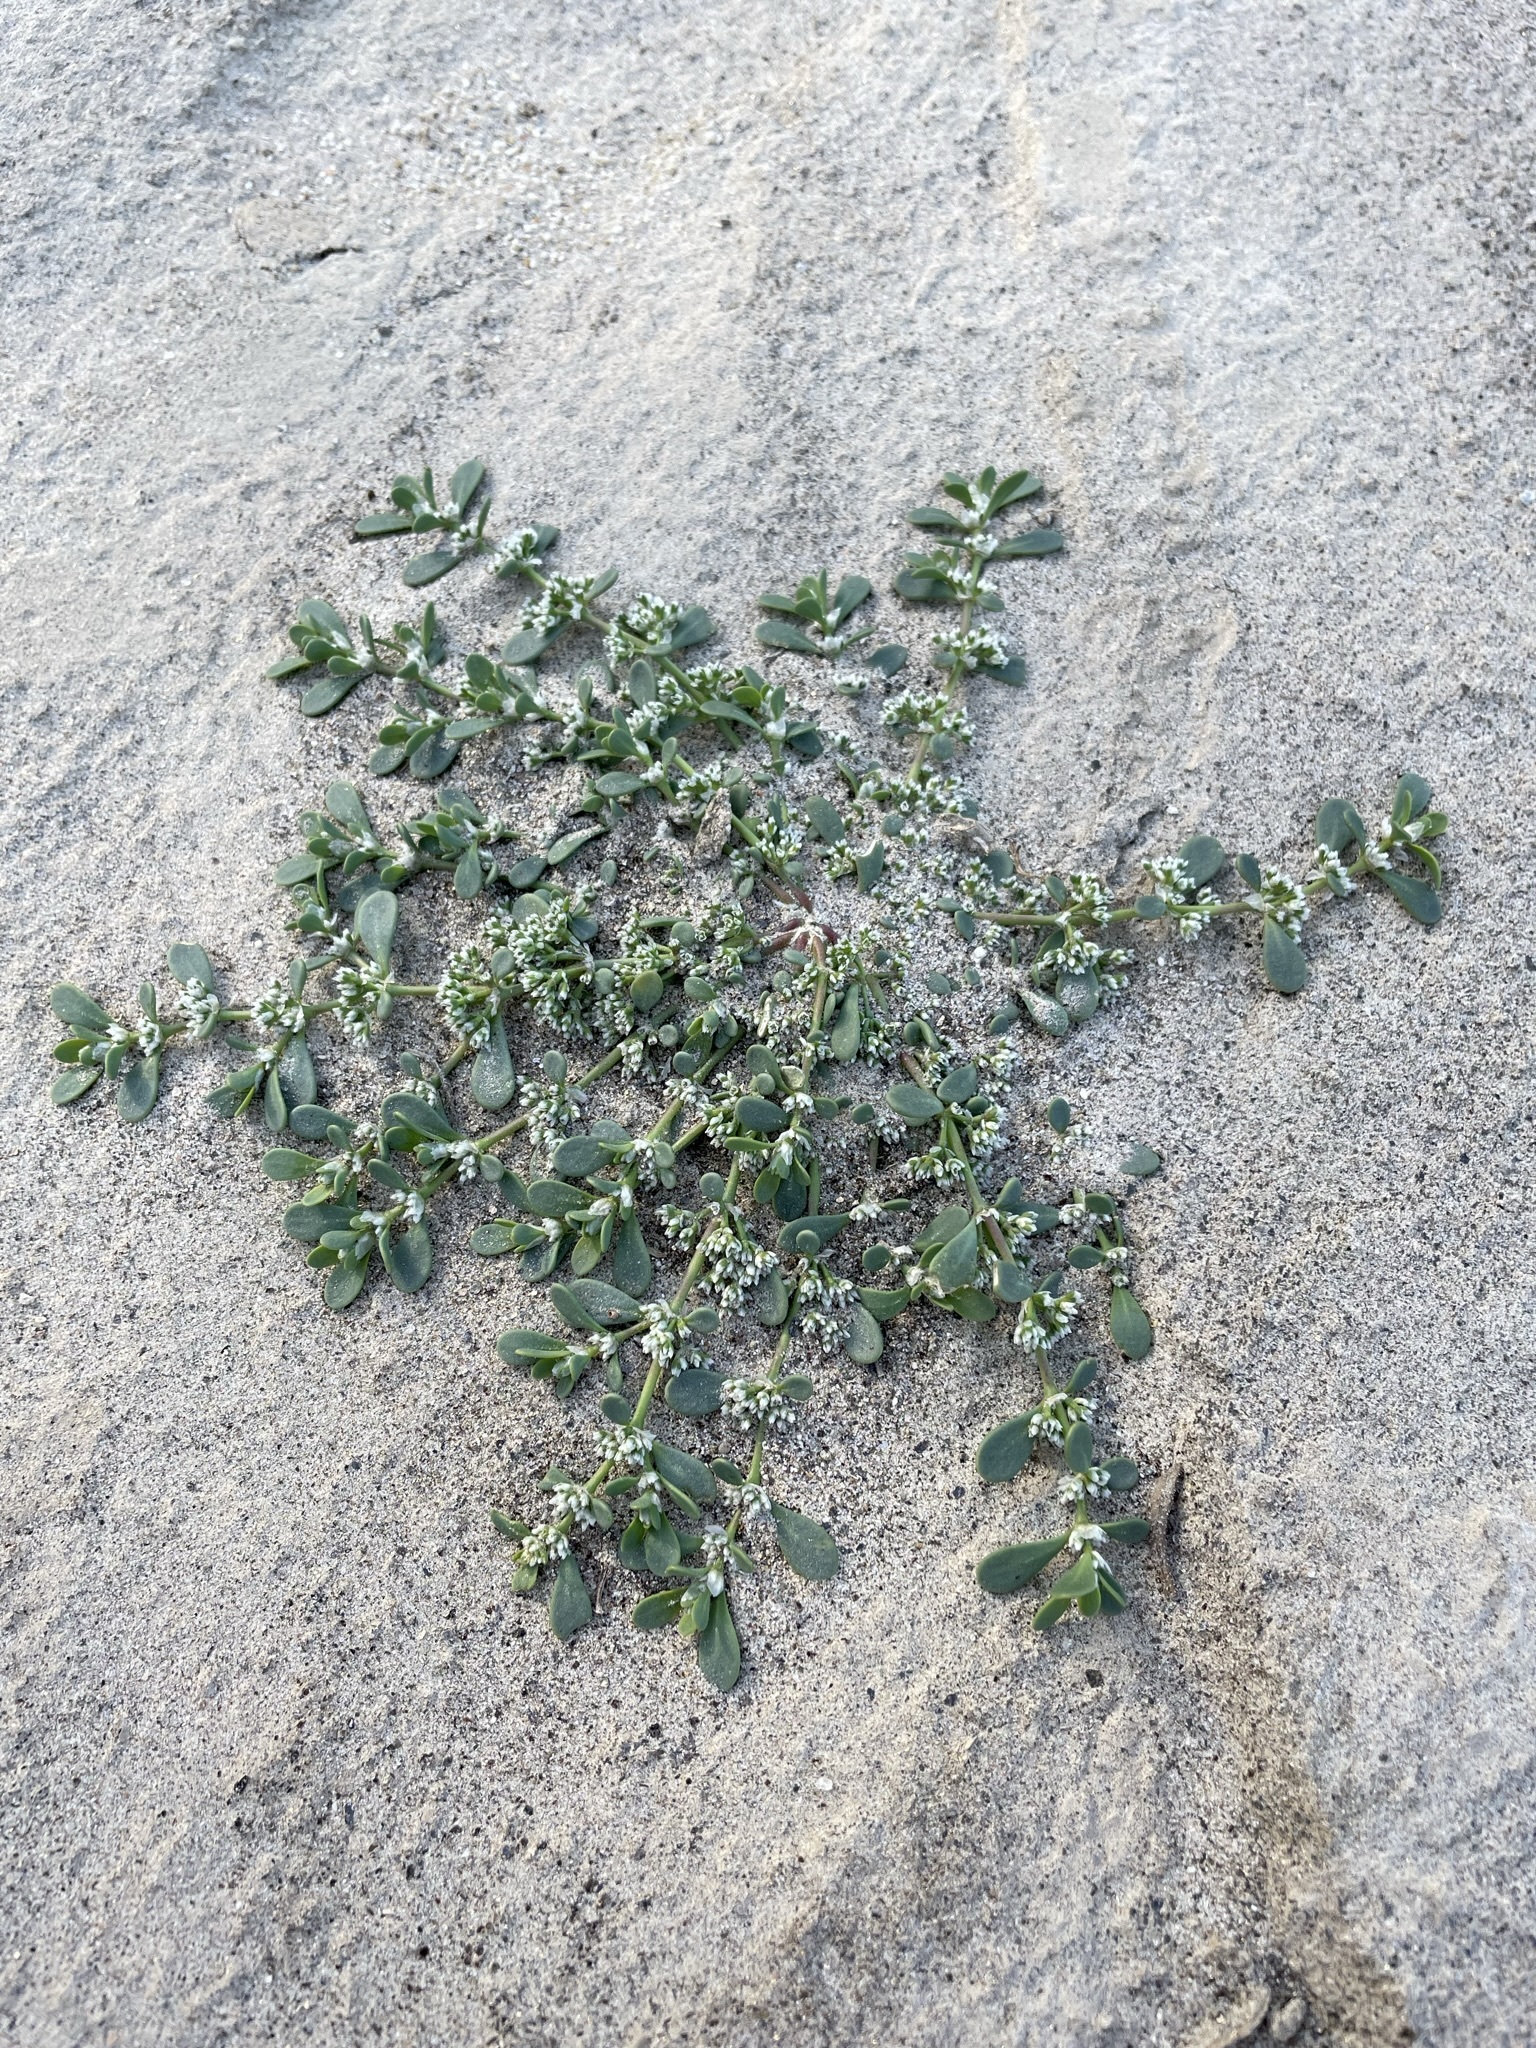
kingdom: Plantae
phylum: Tracheophyta
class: Magnoliopsida
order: Caryophyllales
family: Caryophyllaceae
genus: Achyronychia
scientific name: Achyronychia cooperi
